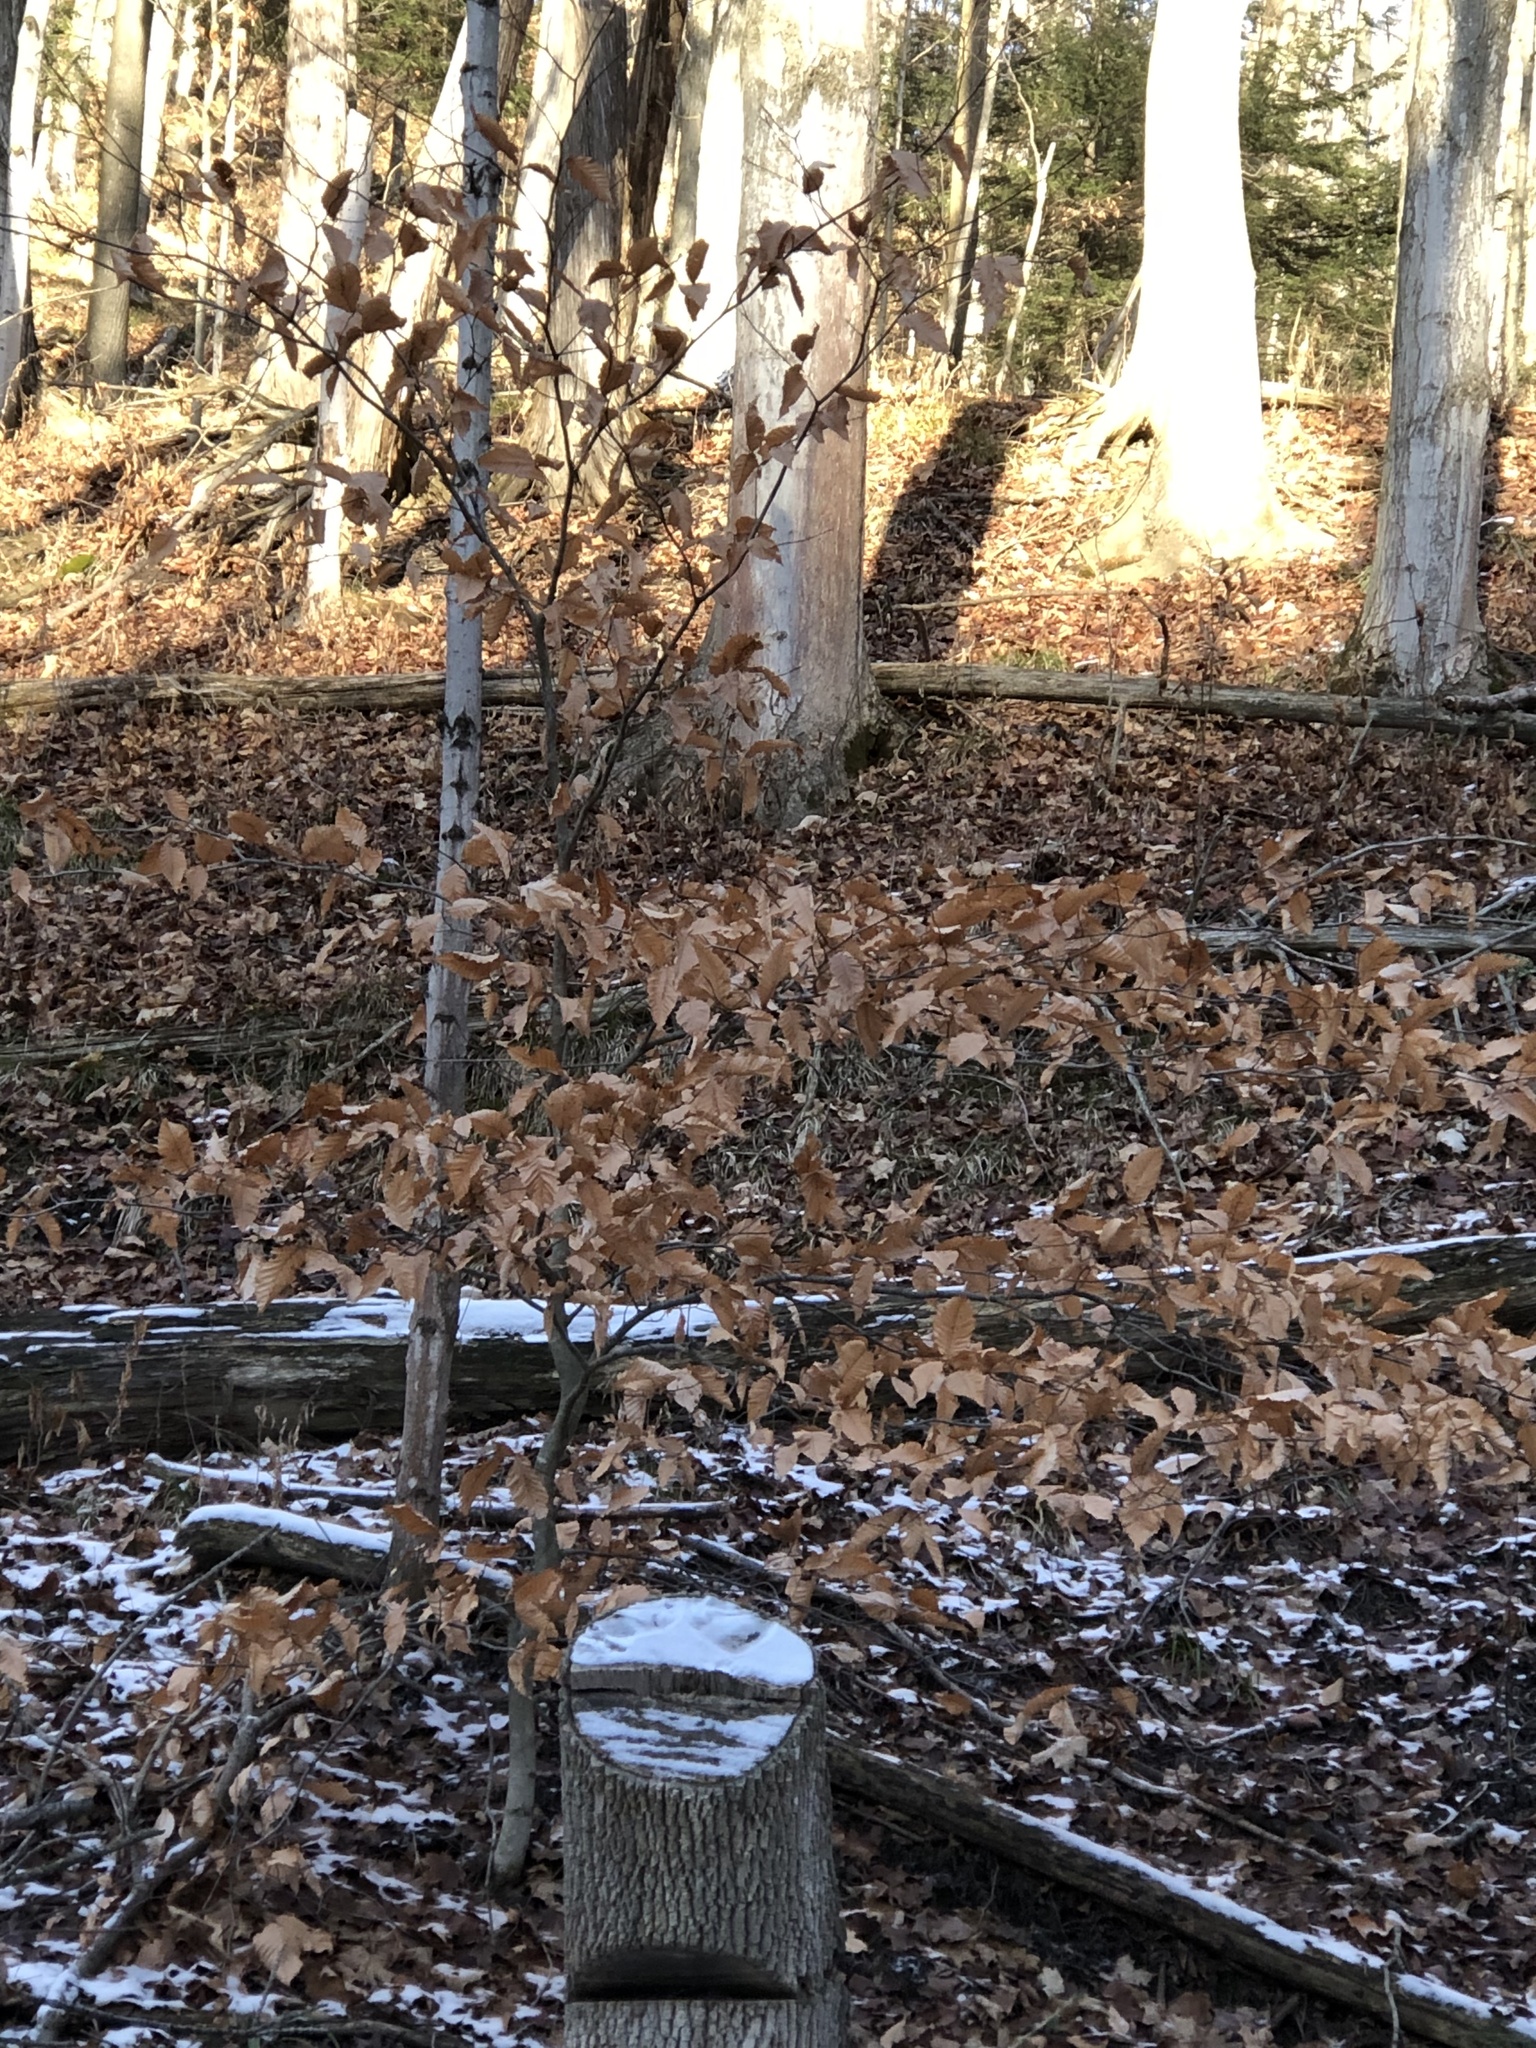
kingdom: Plantae
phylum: Tracheophyta
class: Magnoliopsida
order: Fagales
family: Fagaceae
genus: Fagus
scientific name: Fagus grandifolia
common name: American beech
